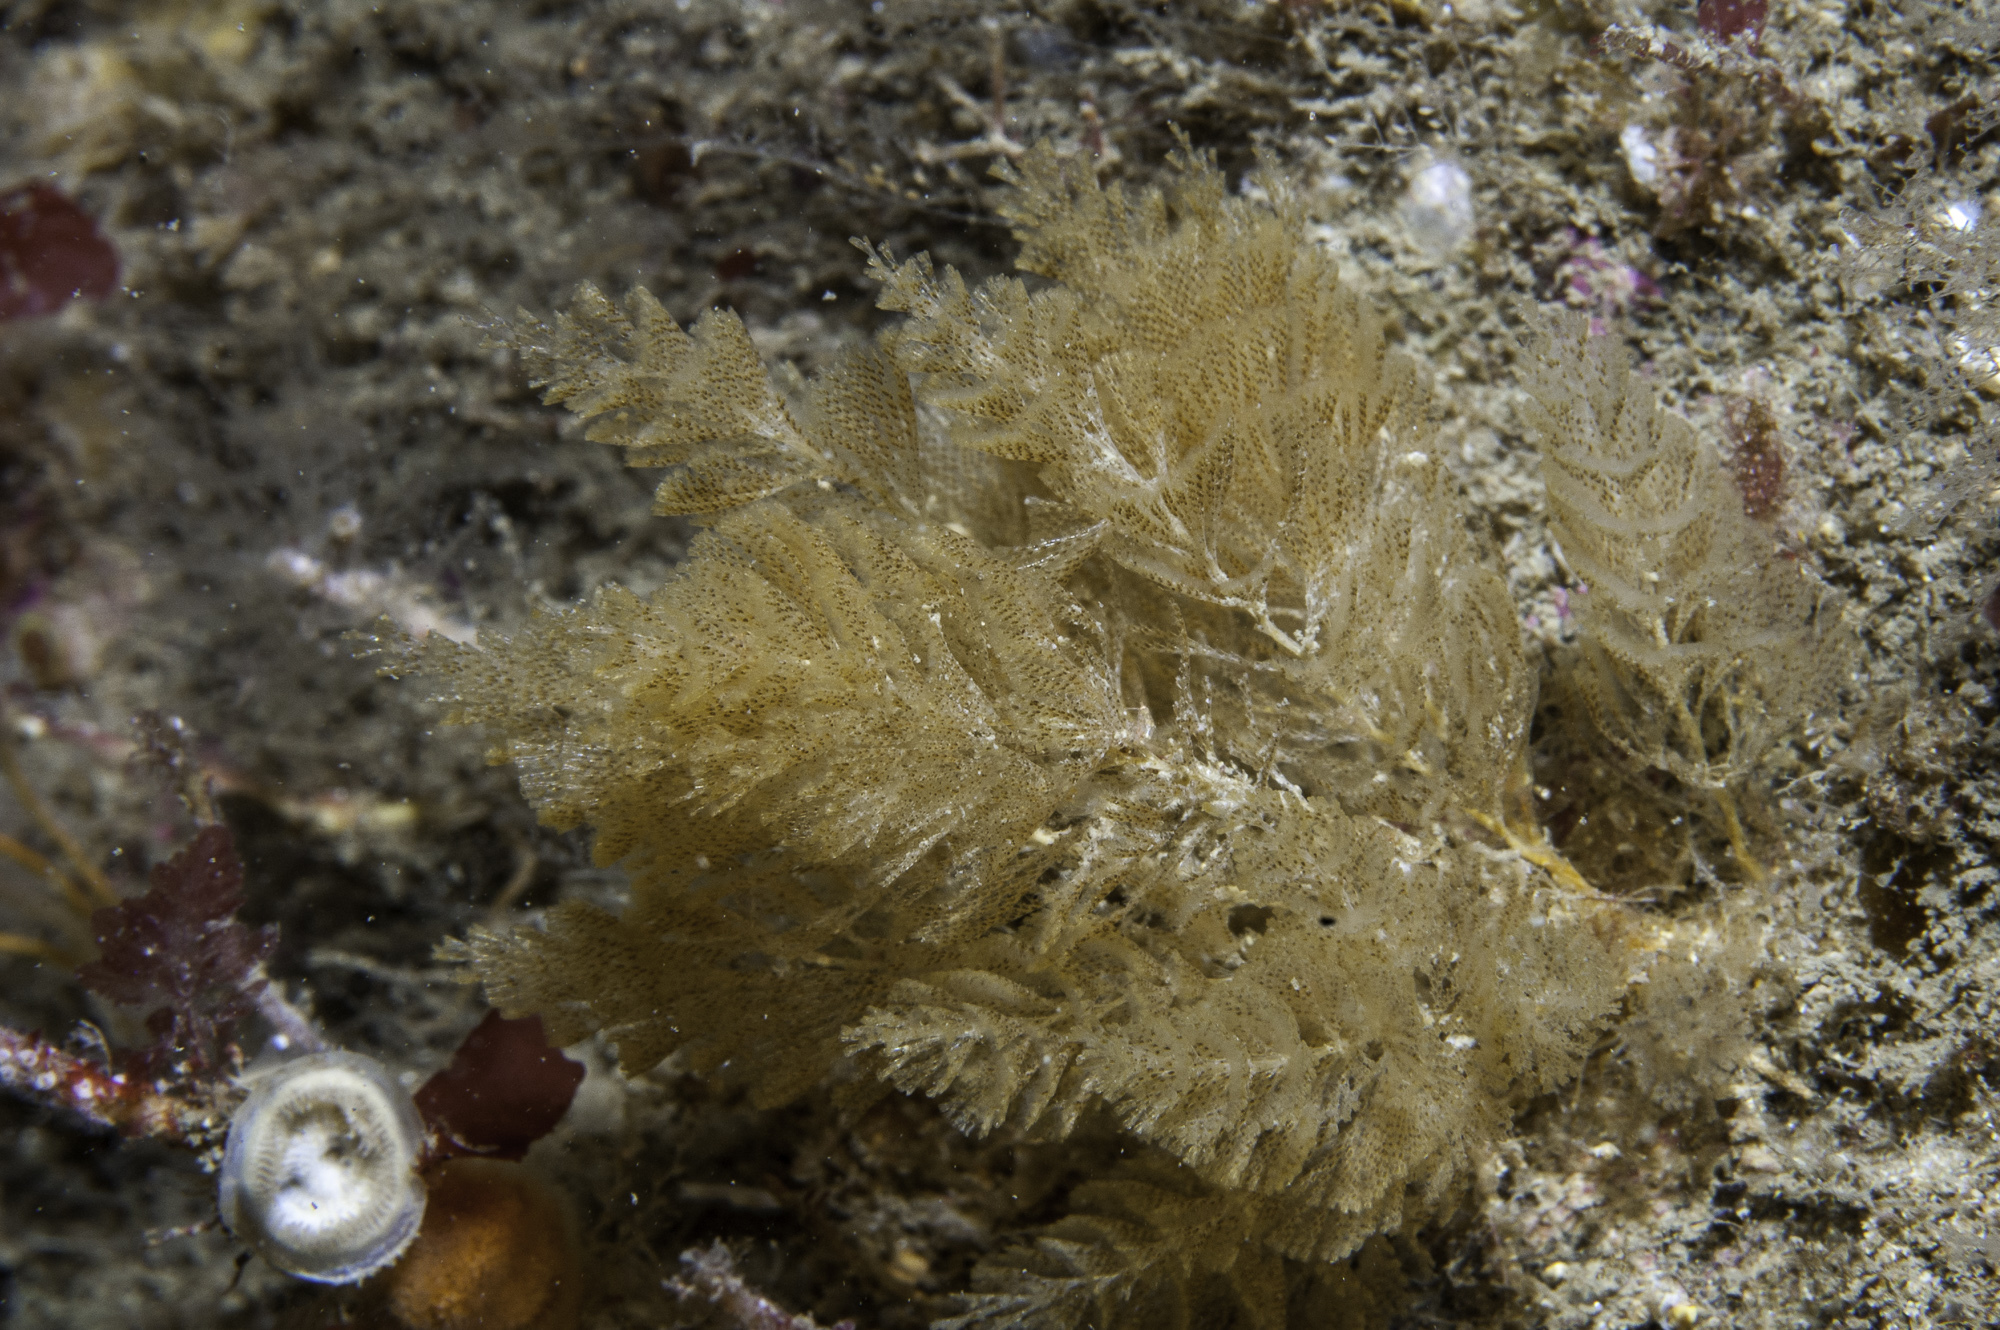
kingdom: Animalia
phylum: Bryozoa
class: Gymnolaemata
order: Cheilostomatida
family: Bugulidae
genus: Crisularia
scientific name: Crisularia plumosa
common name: Feather bryozoan
